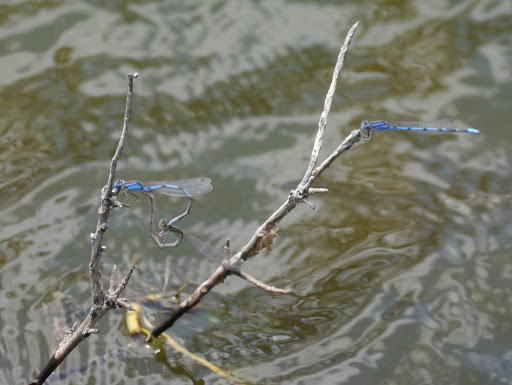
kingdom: Animalia
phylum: Arthropoda
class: Insecta
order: Odonata
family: Coenagrionidae
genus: Enallagma
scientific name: Enallagma civile
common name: Damselfly
